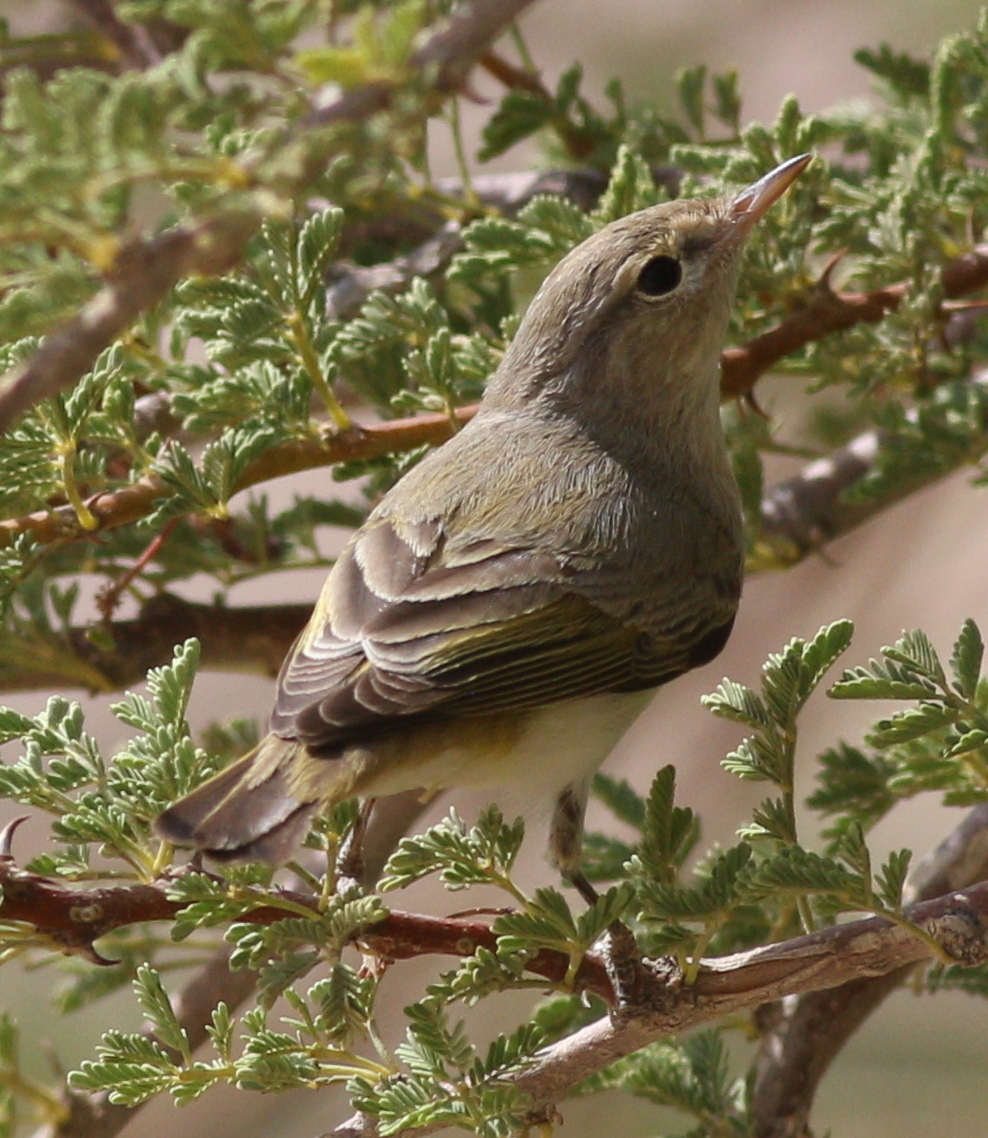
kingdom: Animalia
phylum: Chordata
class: Aves
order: Passeriformes
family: Phylloscopidae
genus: Phylloscopus
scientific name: Phylloscopus orientalis
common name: Eastern bonelli's warbler
